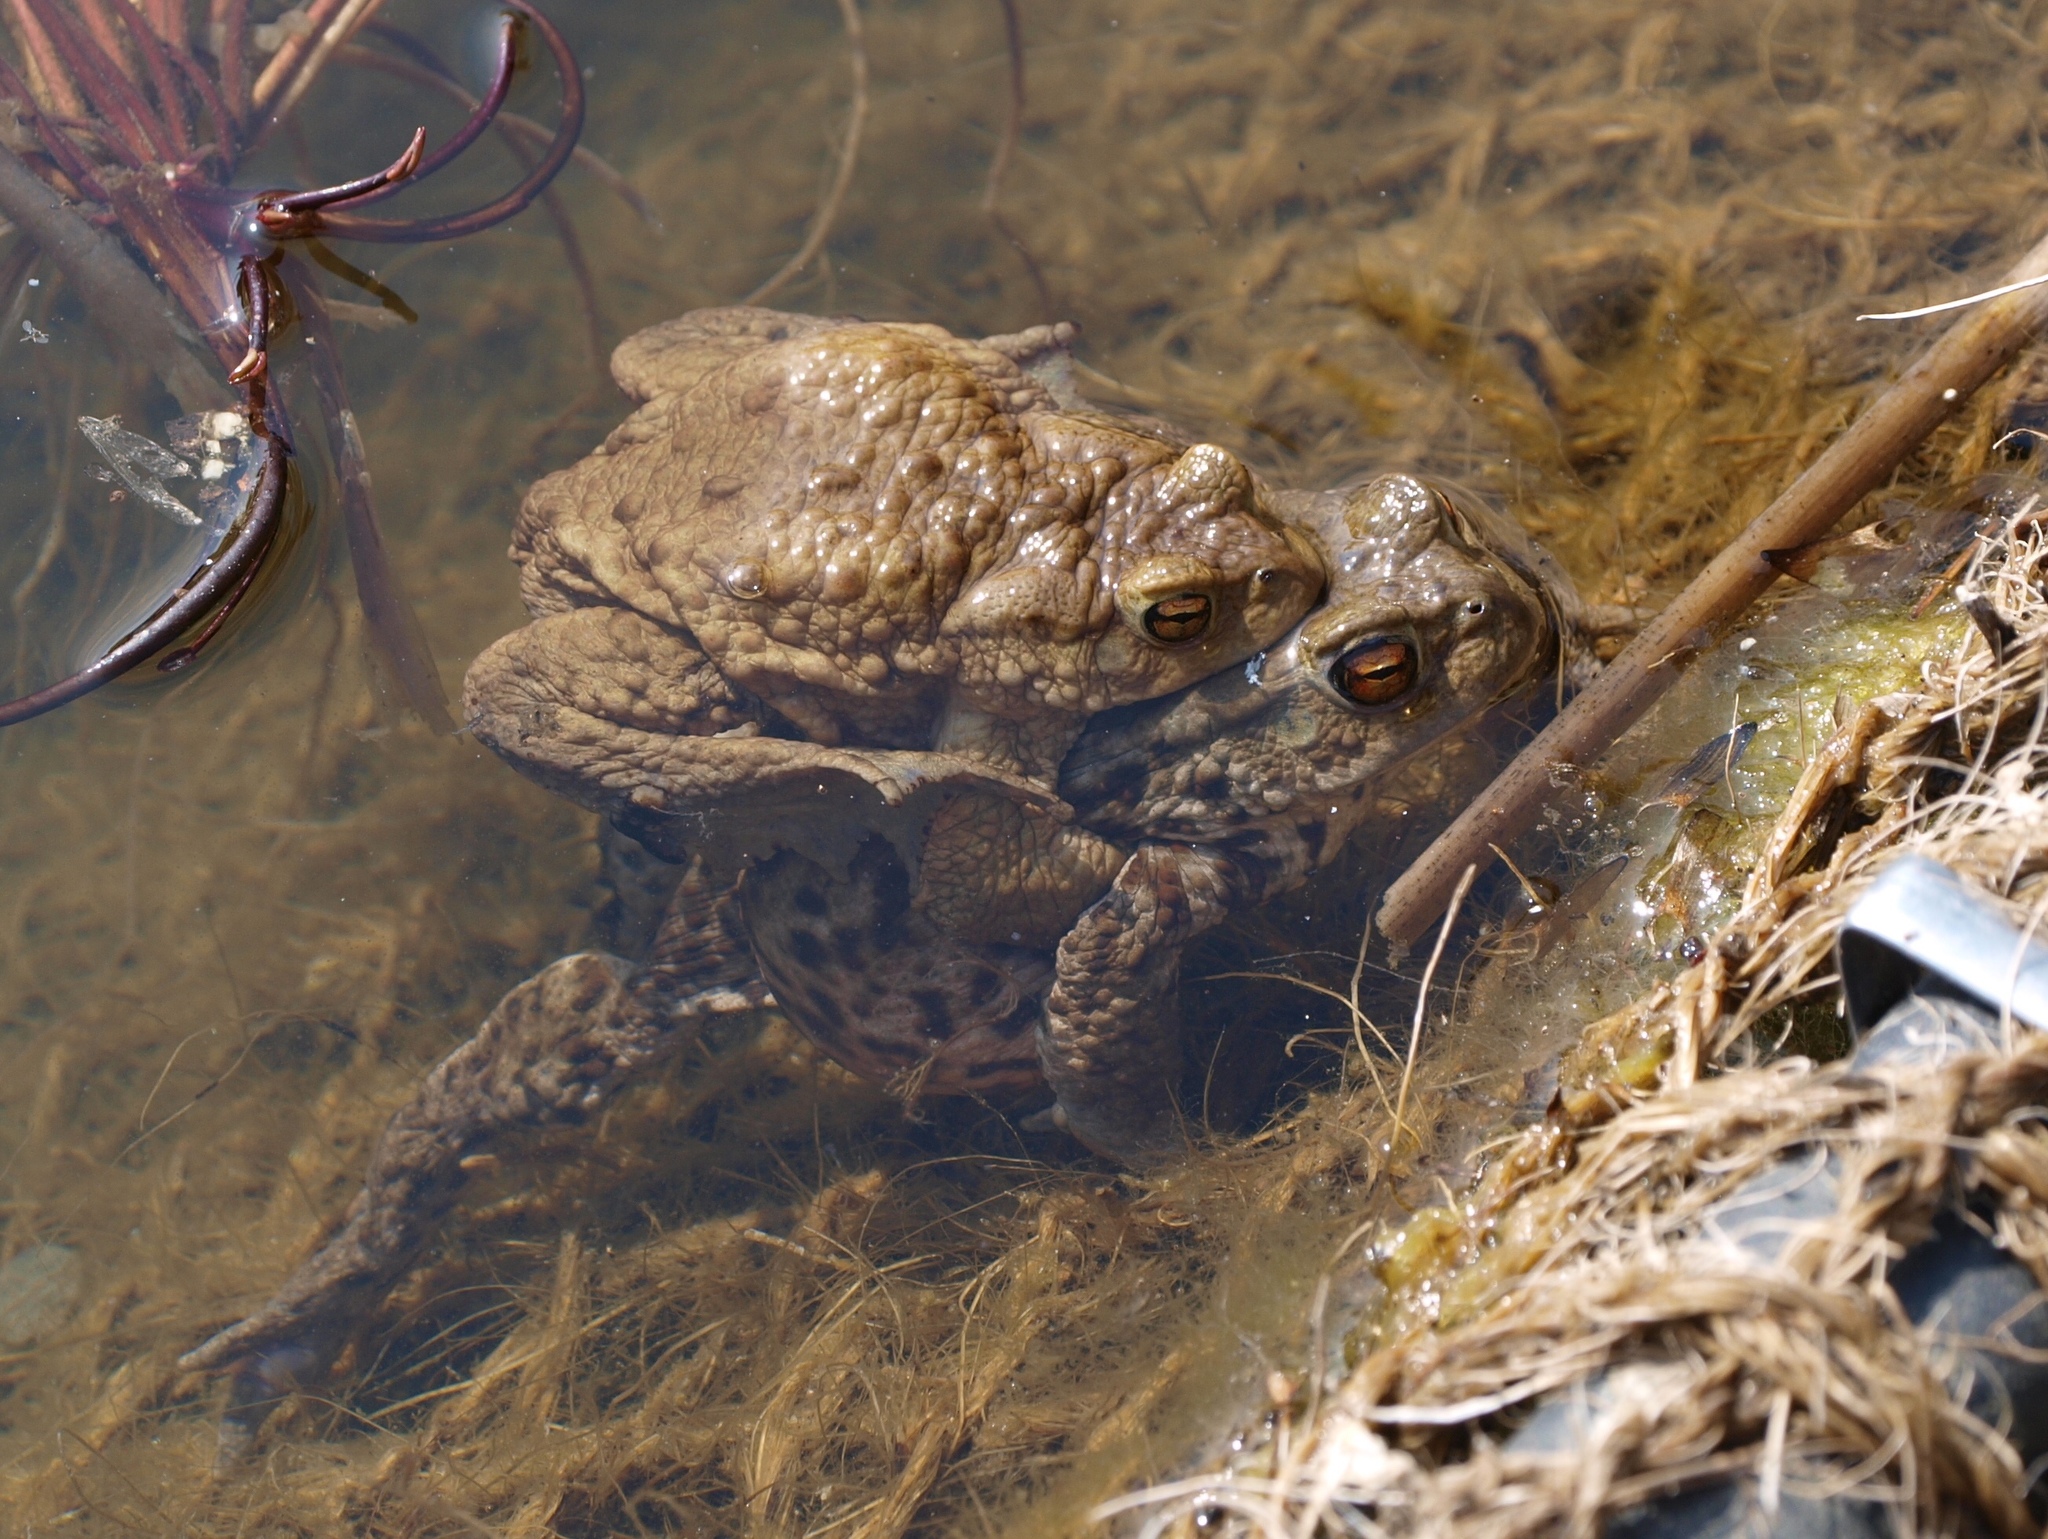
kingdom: Animalia
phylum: Chordata
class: Amphibia
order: Anura
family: Bufonidae
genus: Bufo
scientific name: Bufo bufo
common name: Common toad
